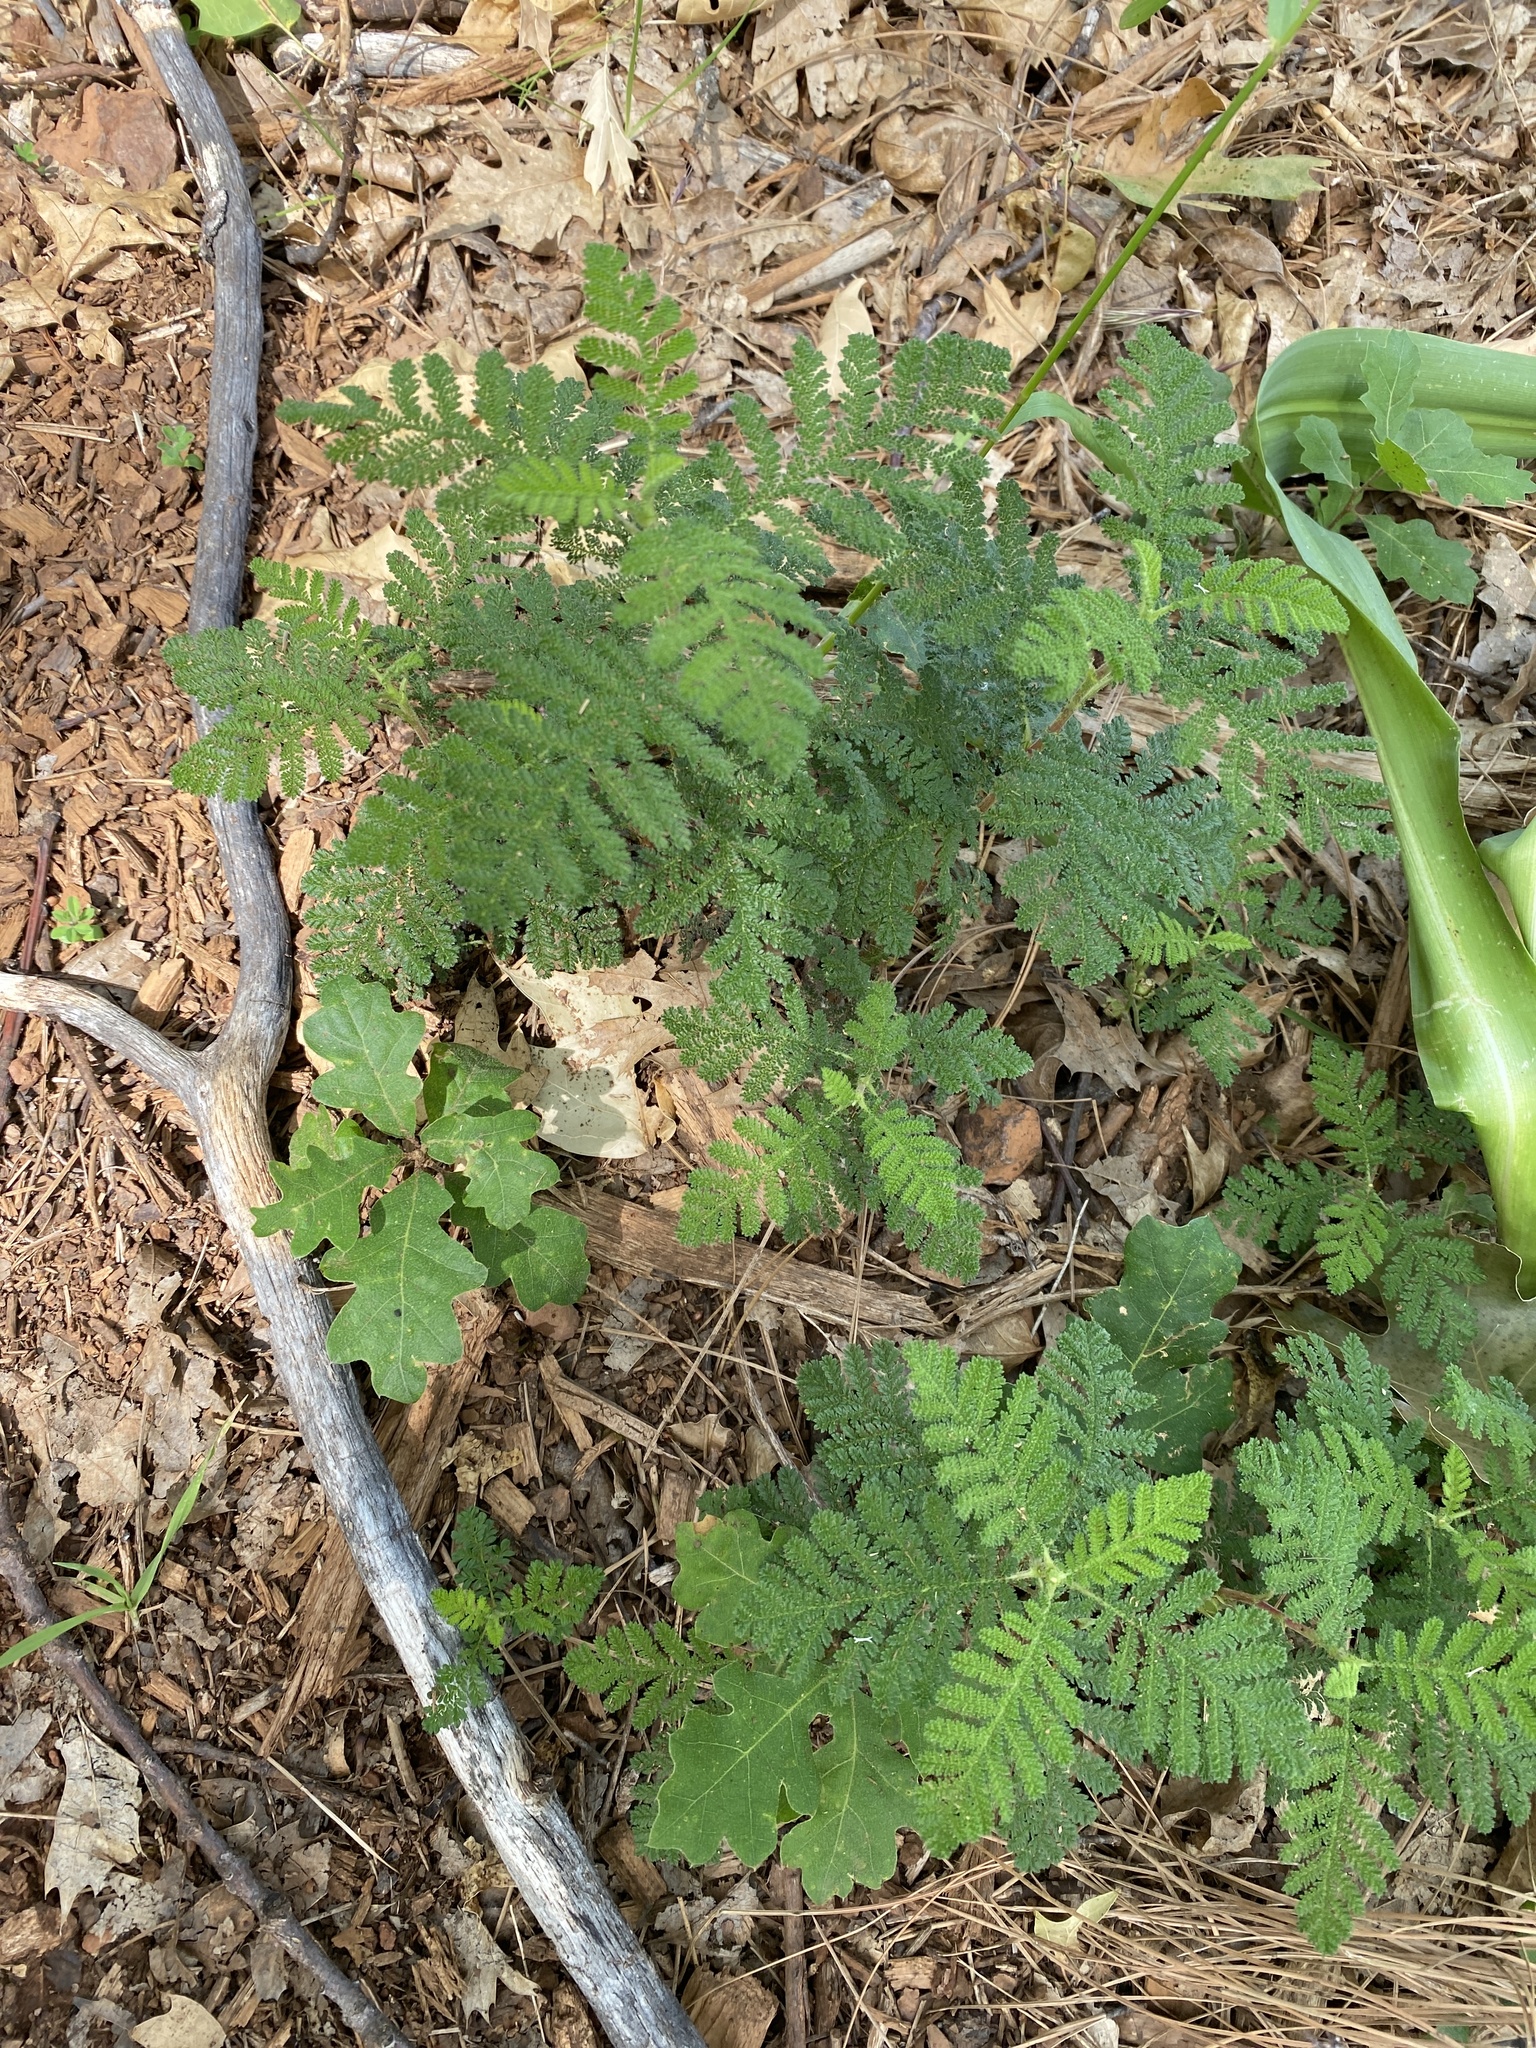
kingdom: Plantae
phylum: Tracheophyta
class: Magnoliopsida
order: Rosales
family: Rosaceae
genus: Chamaebatia
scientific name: Chamaebatia foliolosa
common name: Mountain misery
